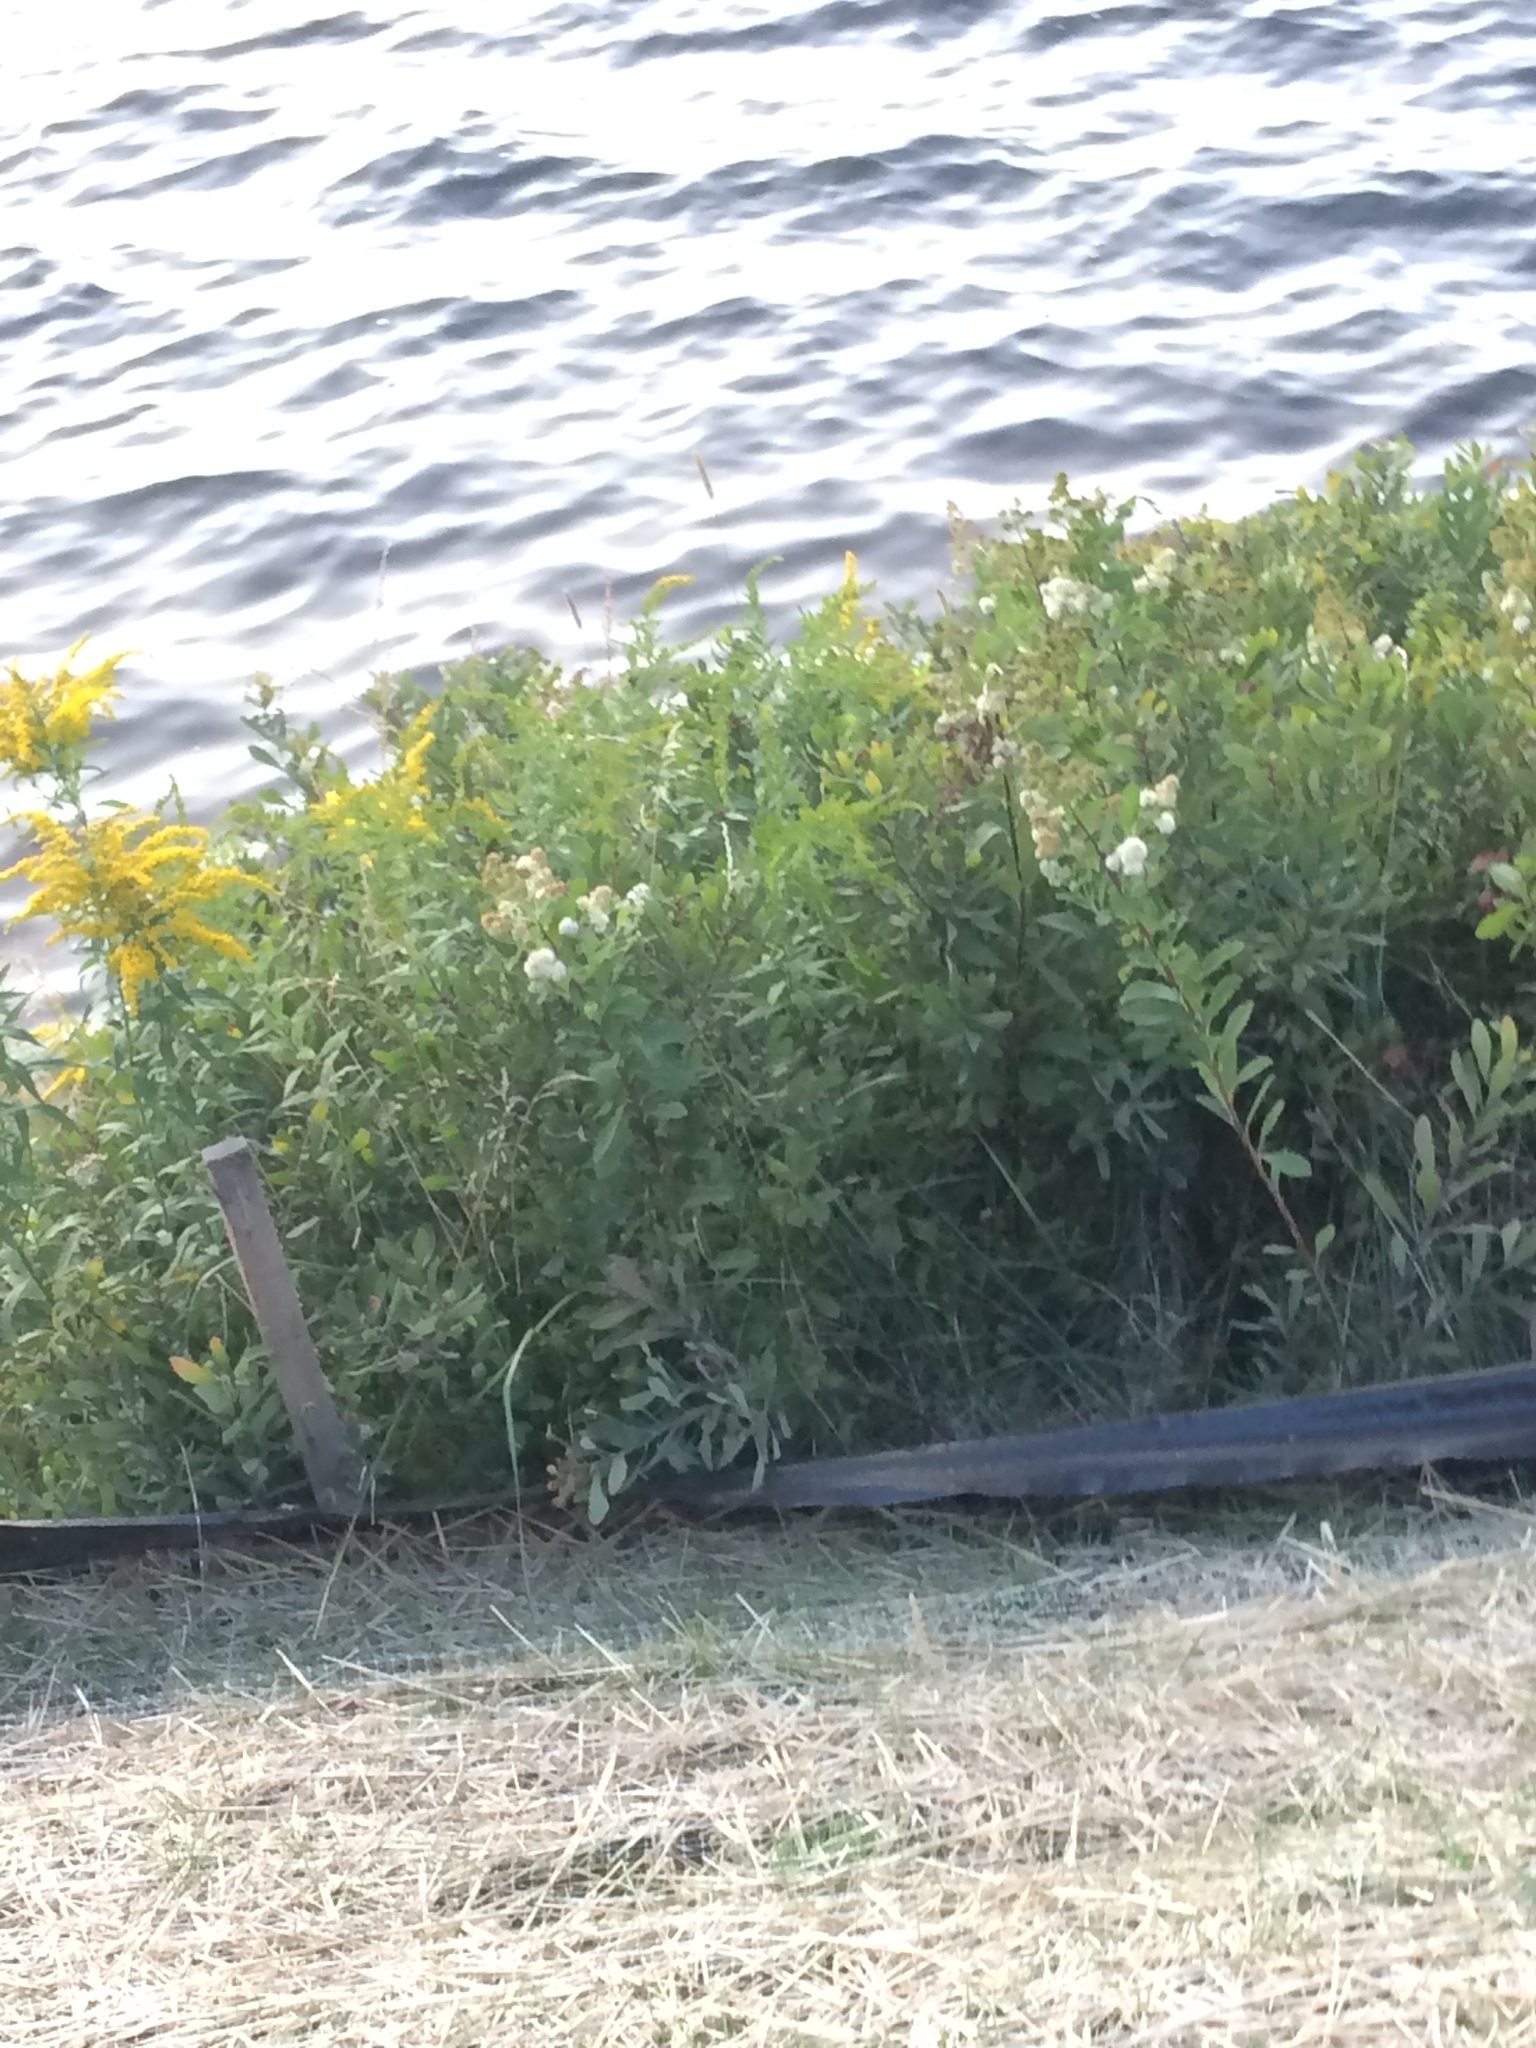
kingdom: Plantae
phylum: Tracheophyta
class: Magnoliopsida
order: Rosales
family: Rosaceae
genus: Spiraea
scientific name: Spiraea alba
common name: Pale bridewort
